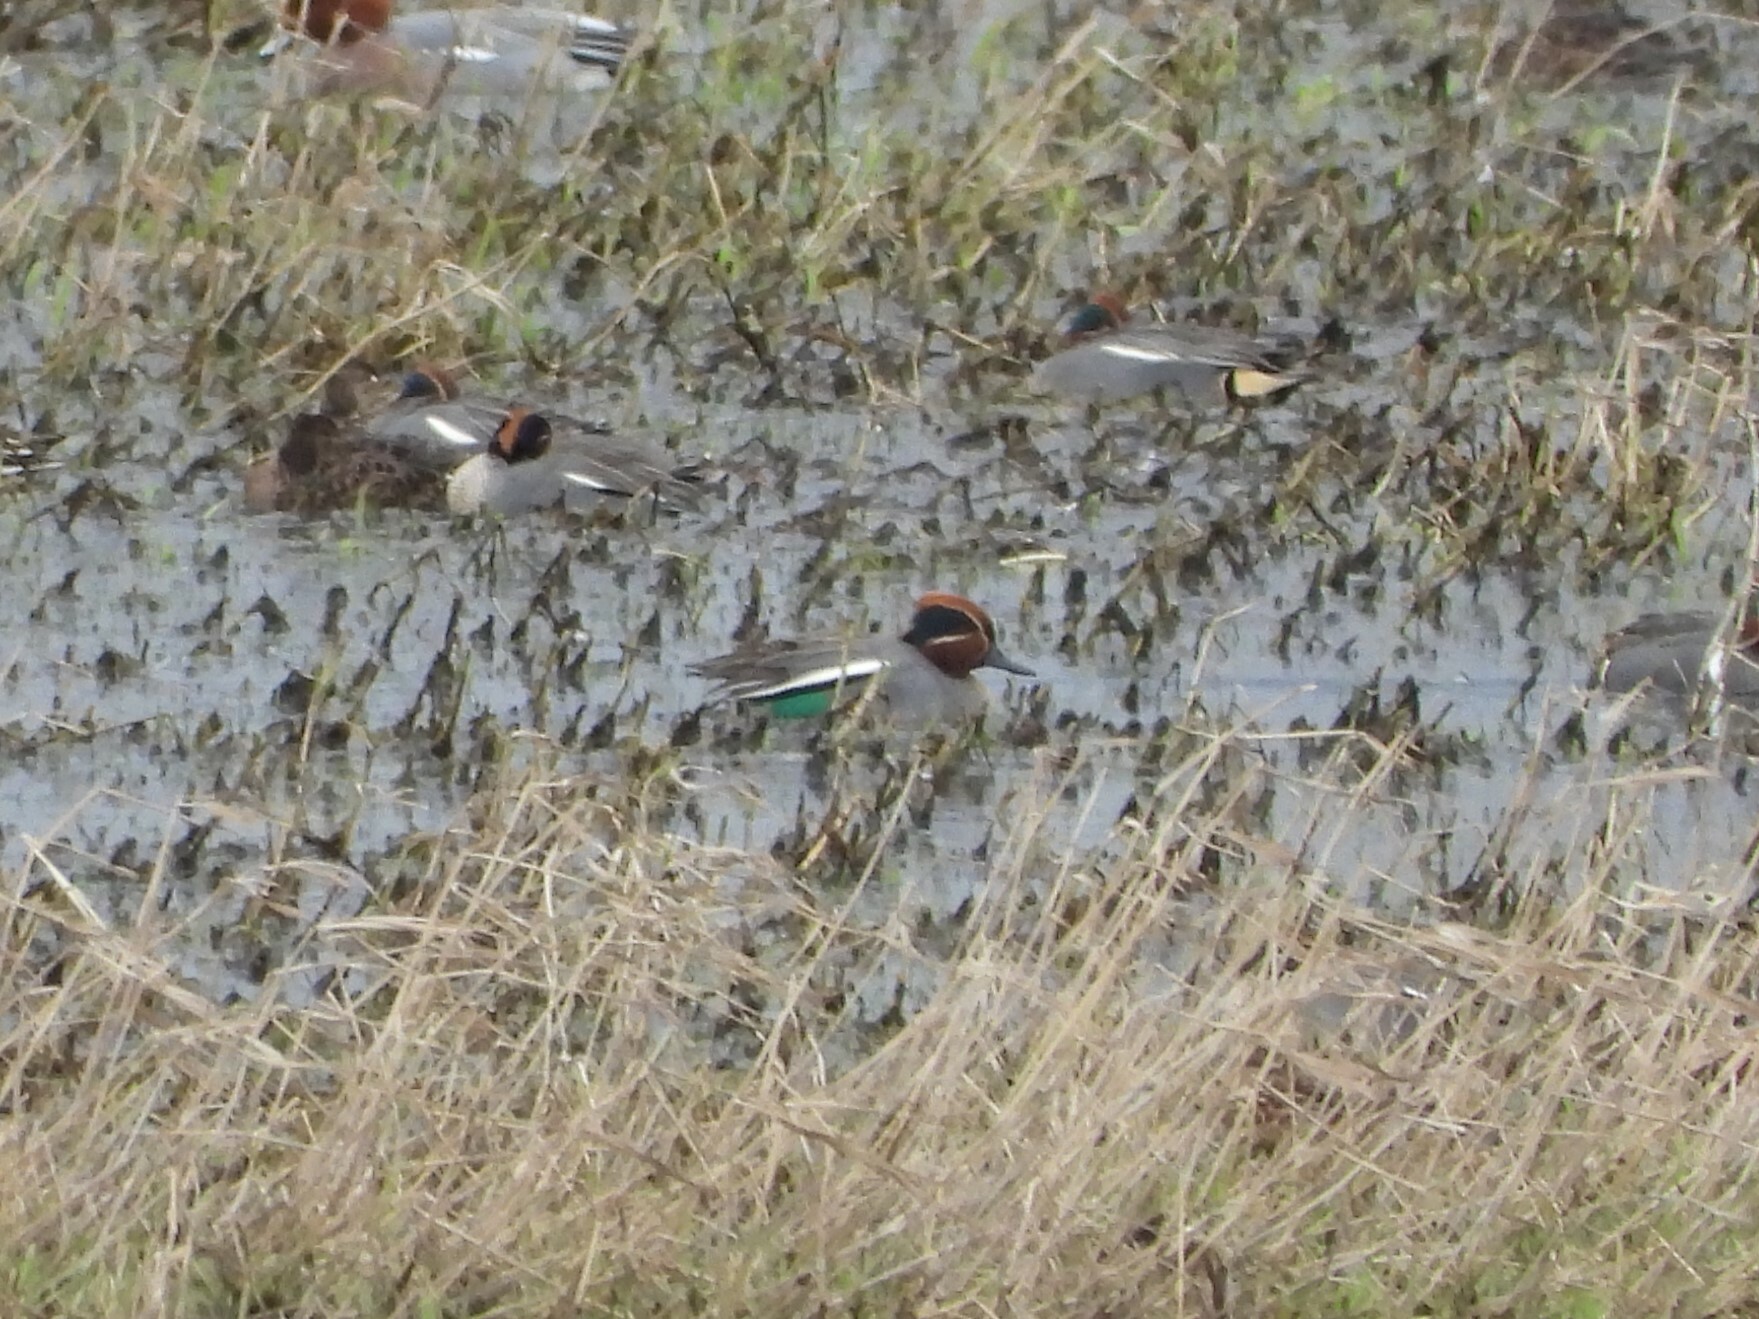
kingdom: Animalia
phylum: Chordata
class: Aves
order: Anseriformes
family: Anatidae
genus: Anas
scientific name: Anas crecca
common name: Eurasian teal
